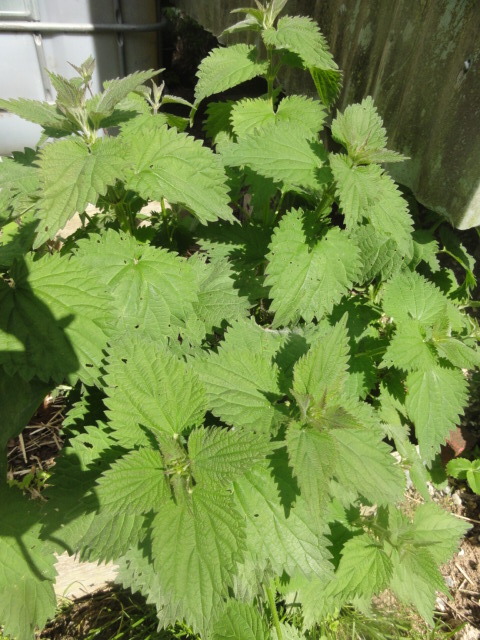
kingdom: Plantae
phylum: Tracheophyta
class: Magnoliopsida
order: Rosales
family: Urticaceae
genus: Urtica
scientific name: Urtica dioica
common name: Common nettle
